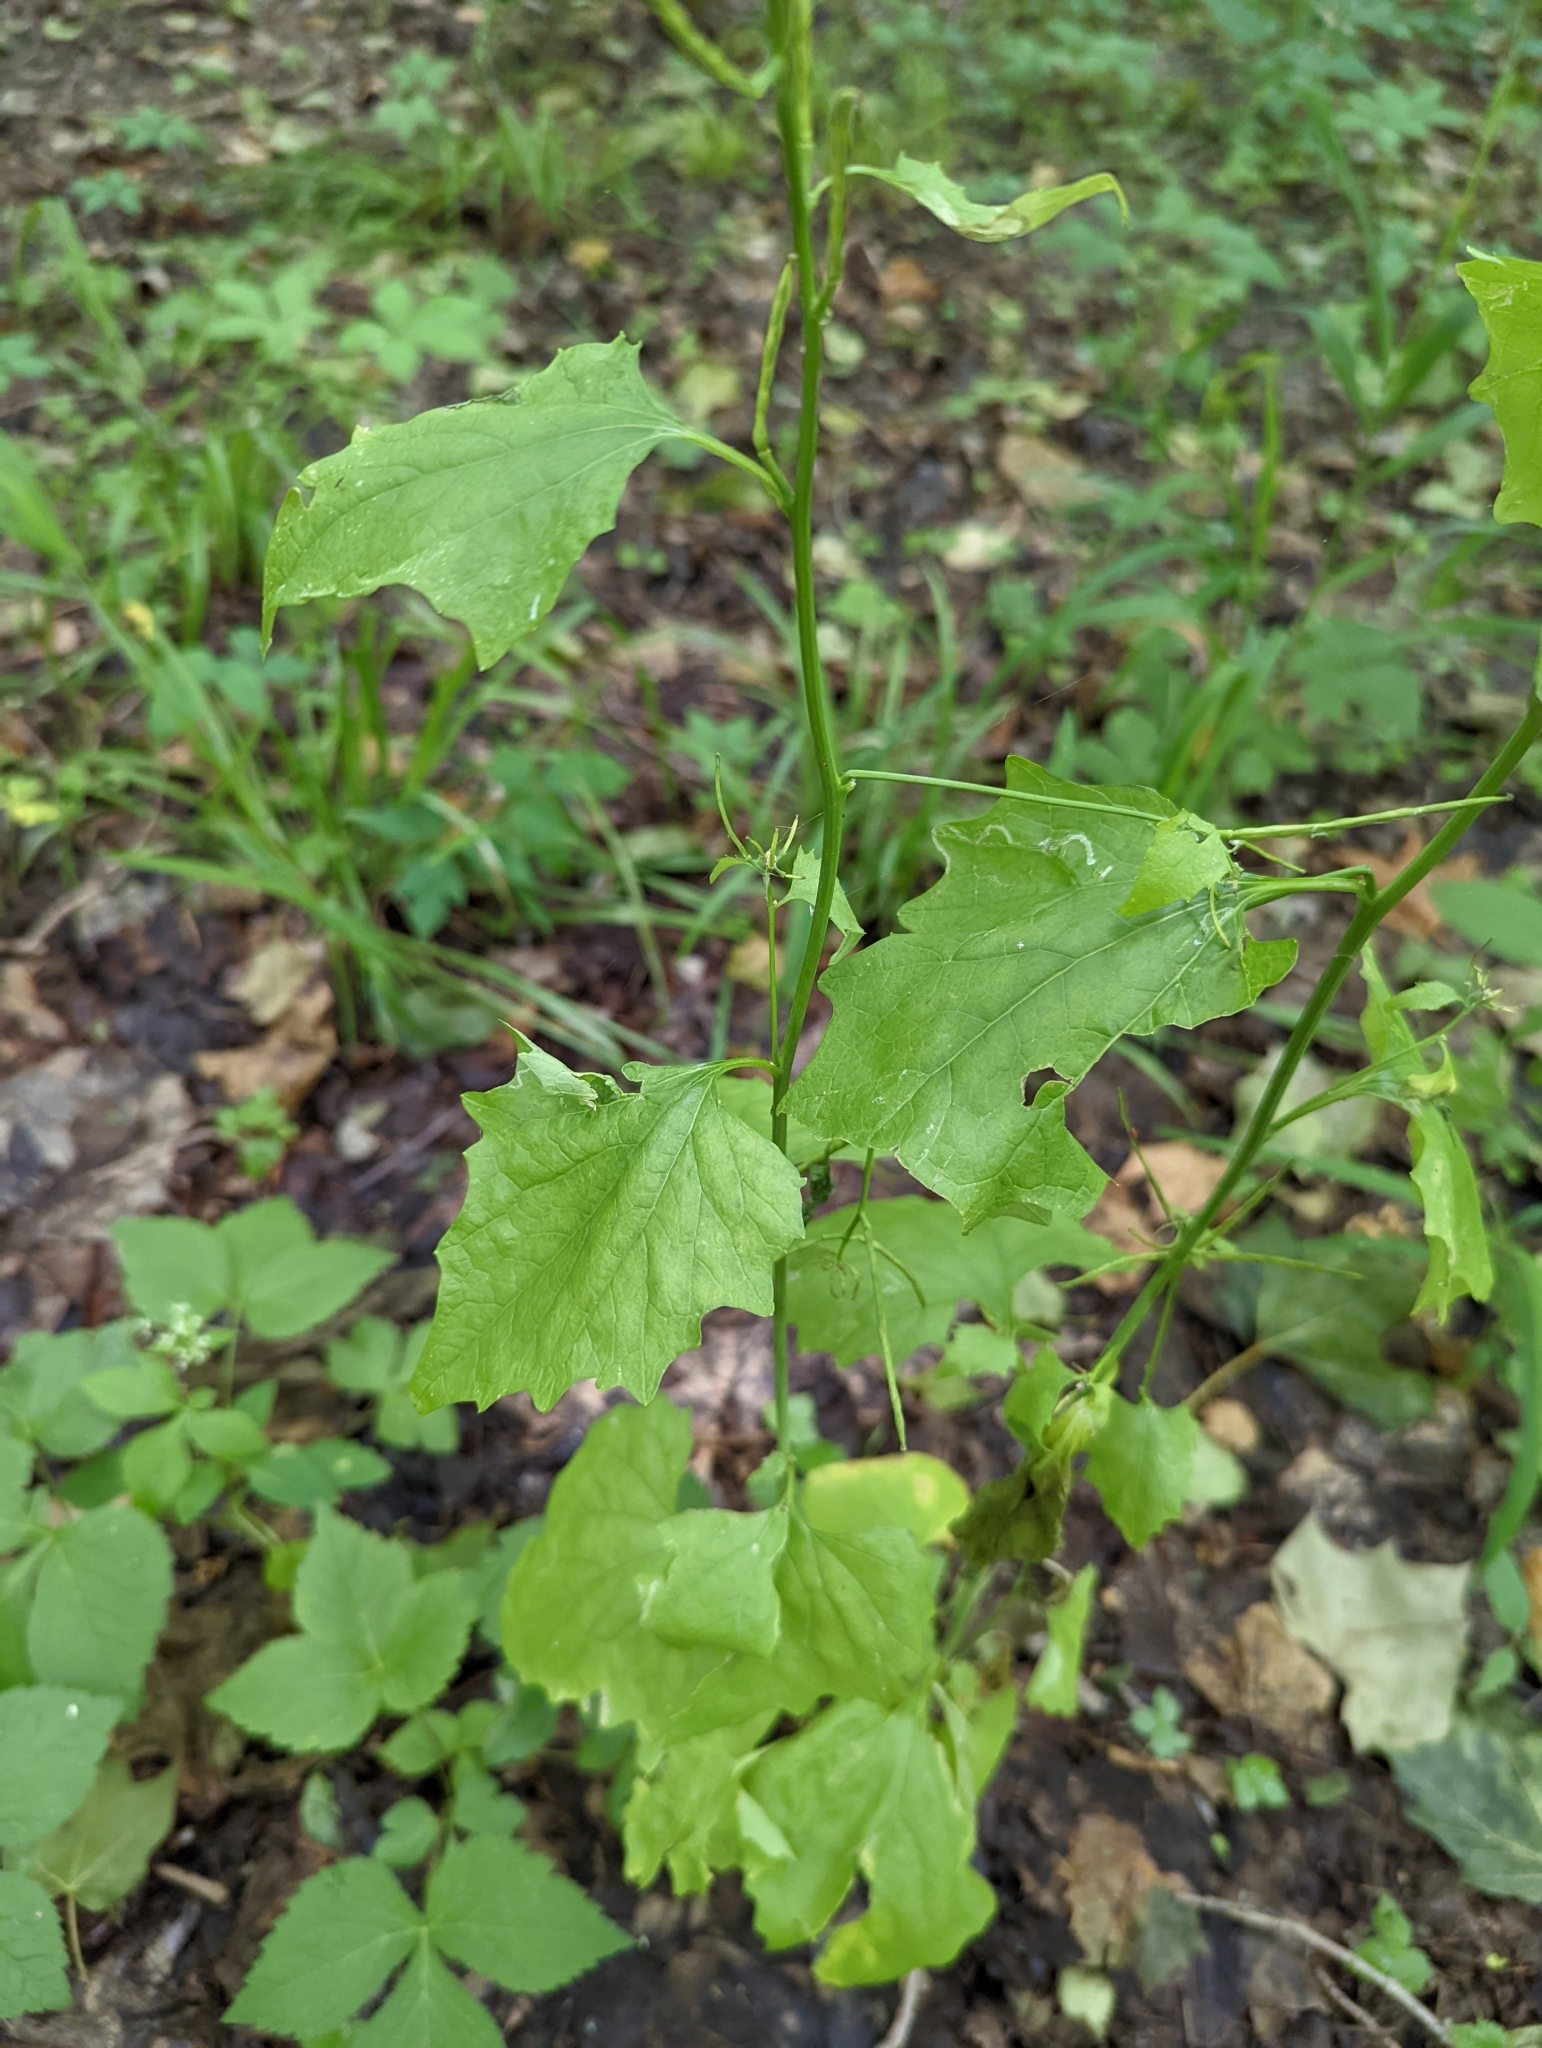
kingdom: Animalia
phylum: Arthropoda
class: Insecta
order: Diptera
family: Agromyzidae
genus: Liriomyza
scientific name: Liriomyza brassicae
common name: Serpentine leaf miner
